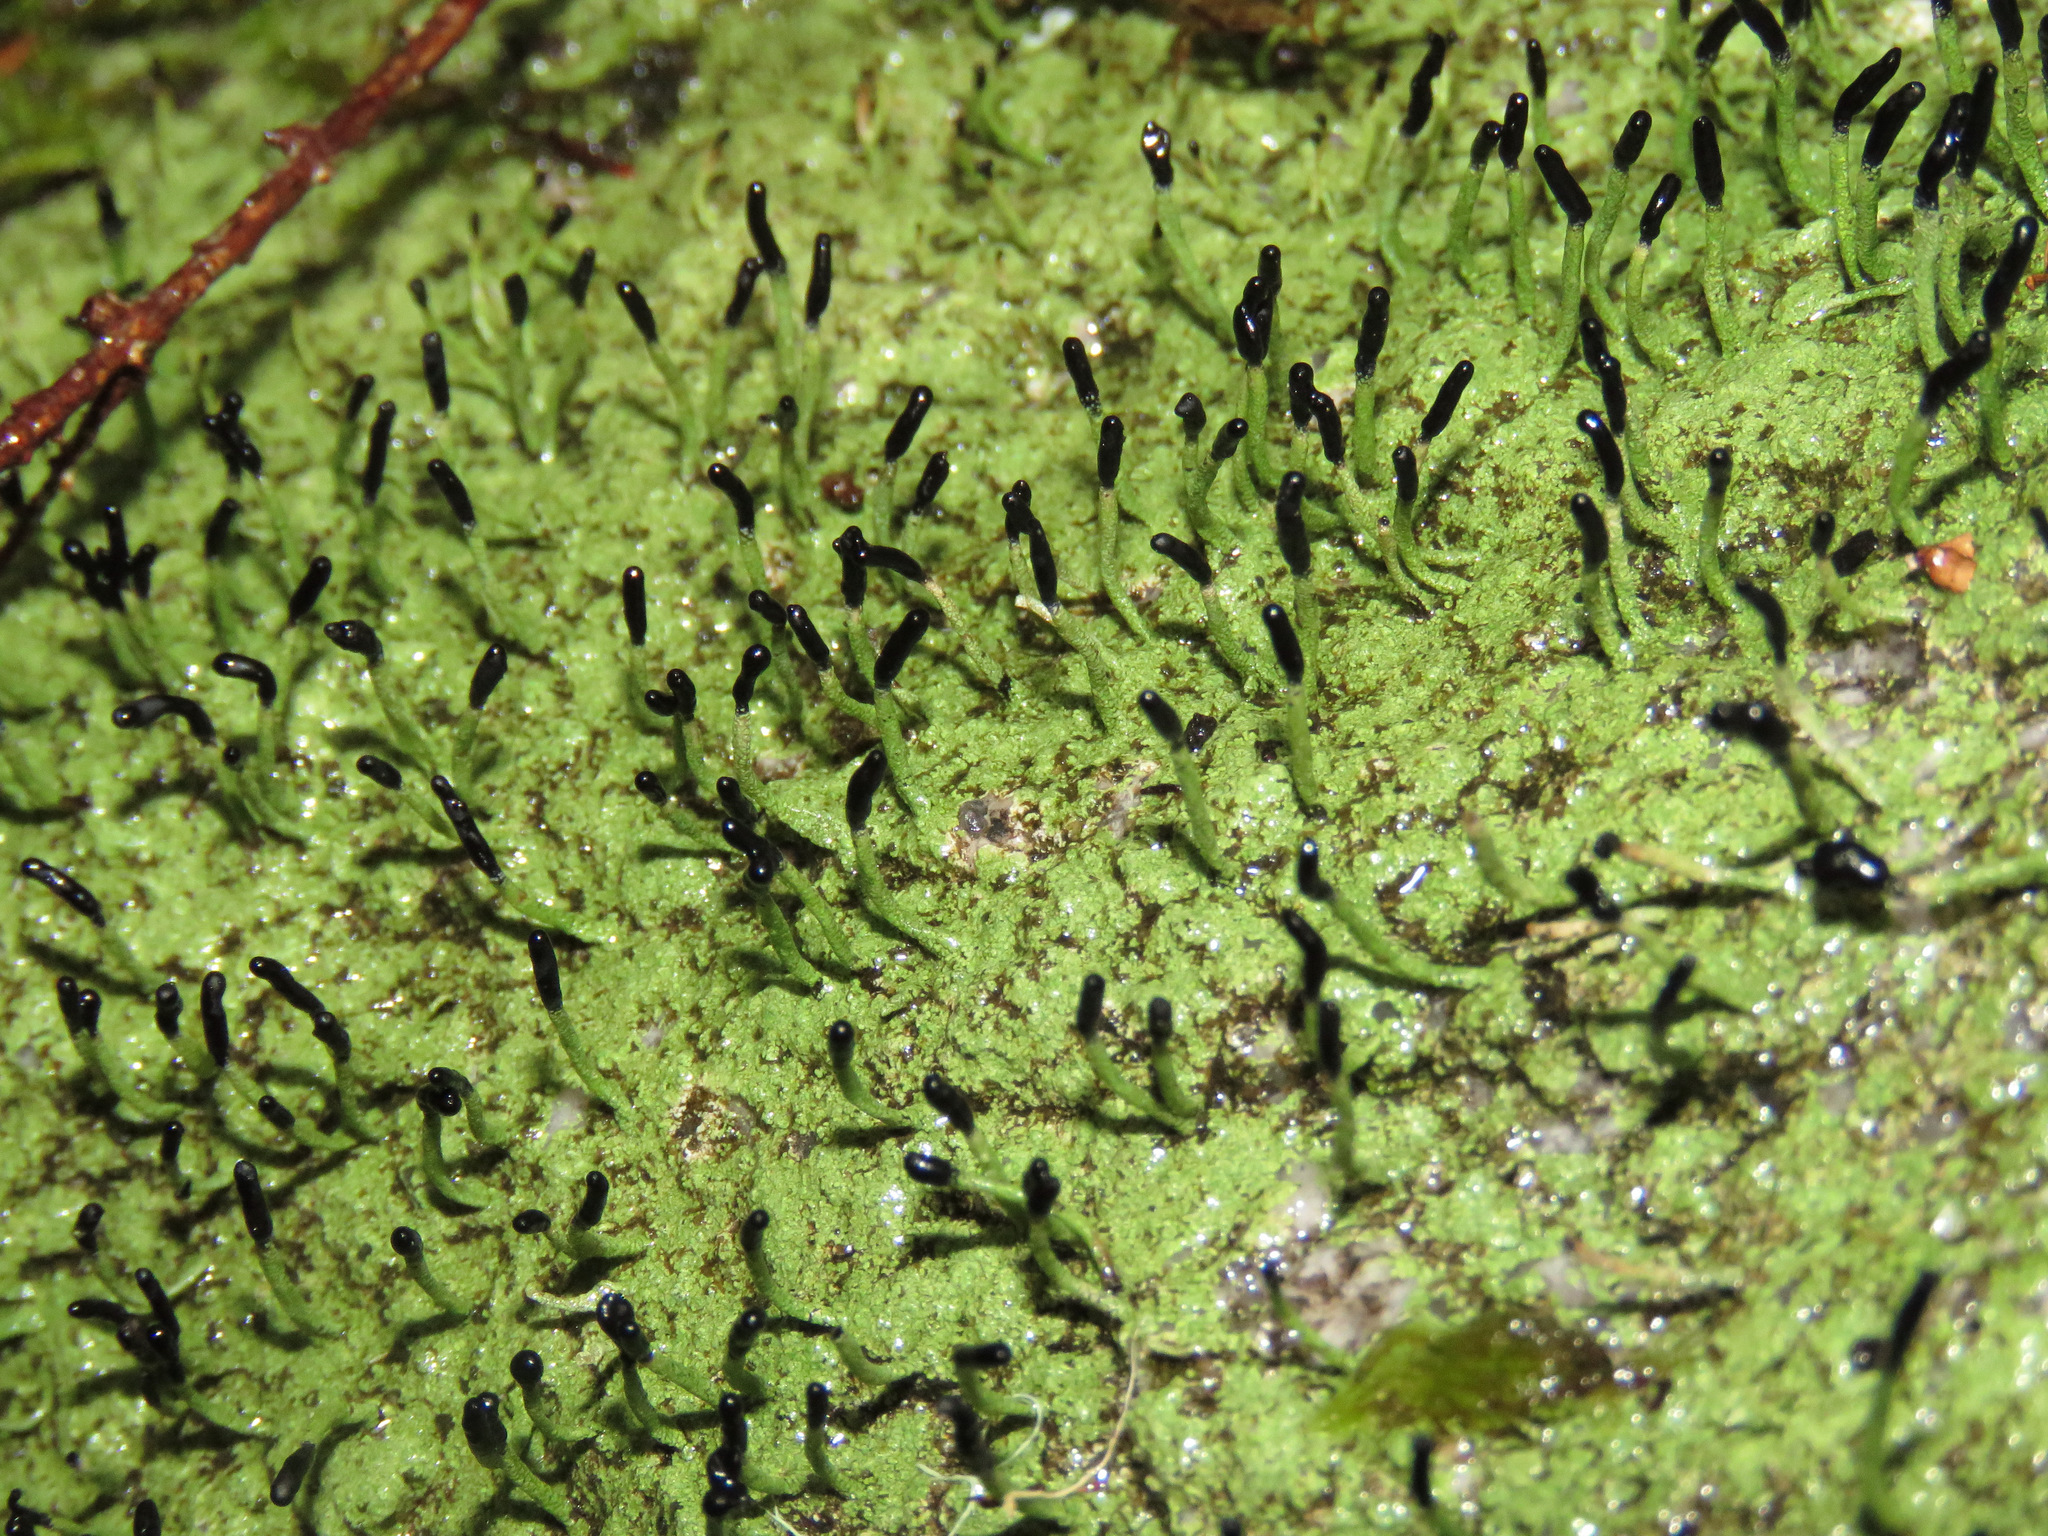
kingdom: Fungi
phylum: Ascomycota
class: Lecanoromycetes
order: Lecanorales
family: Cladoniaceae
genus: Pilophorus
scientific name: Pilophorus clavatus
